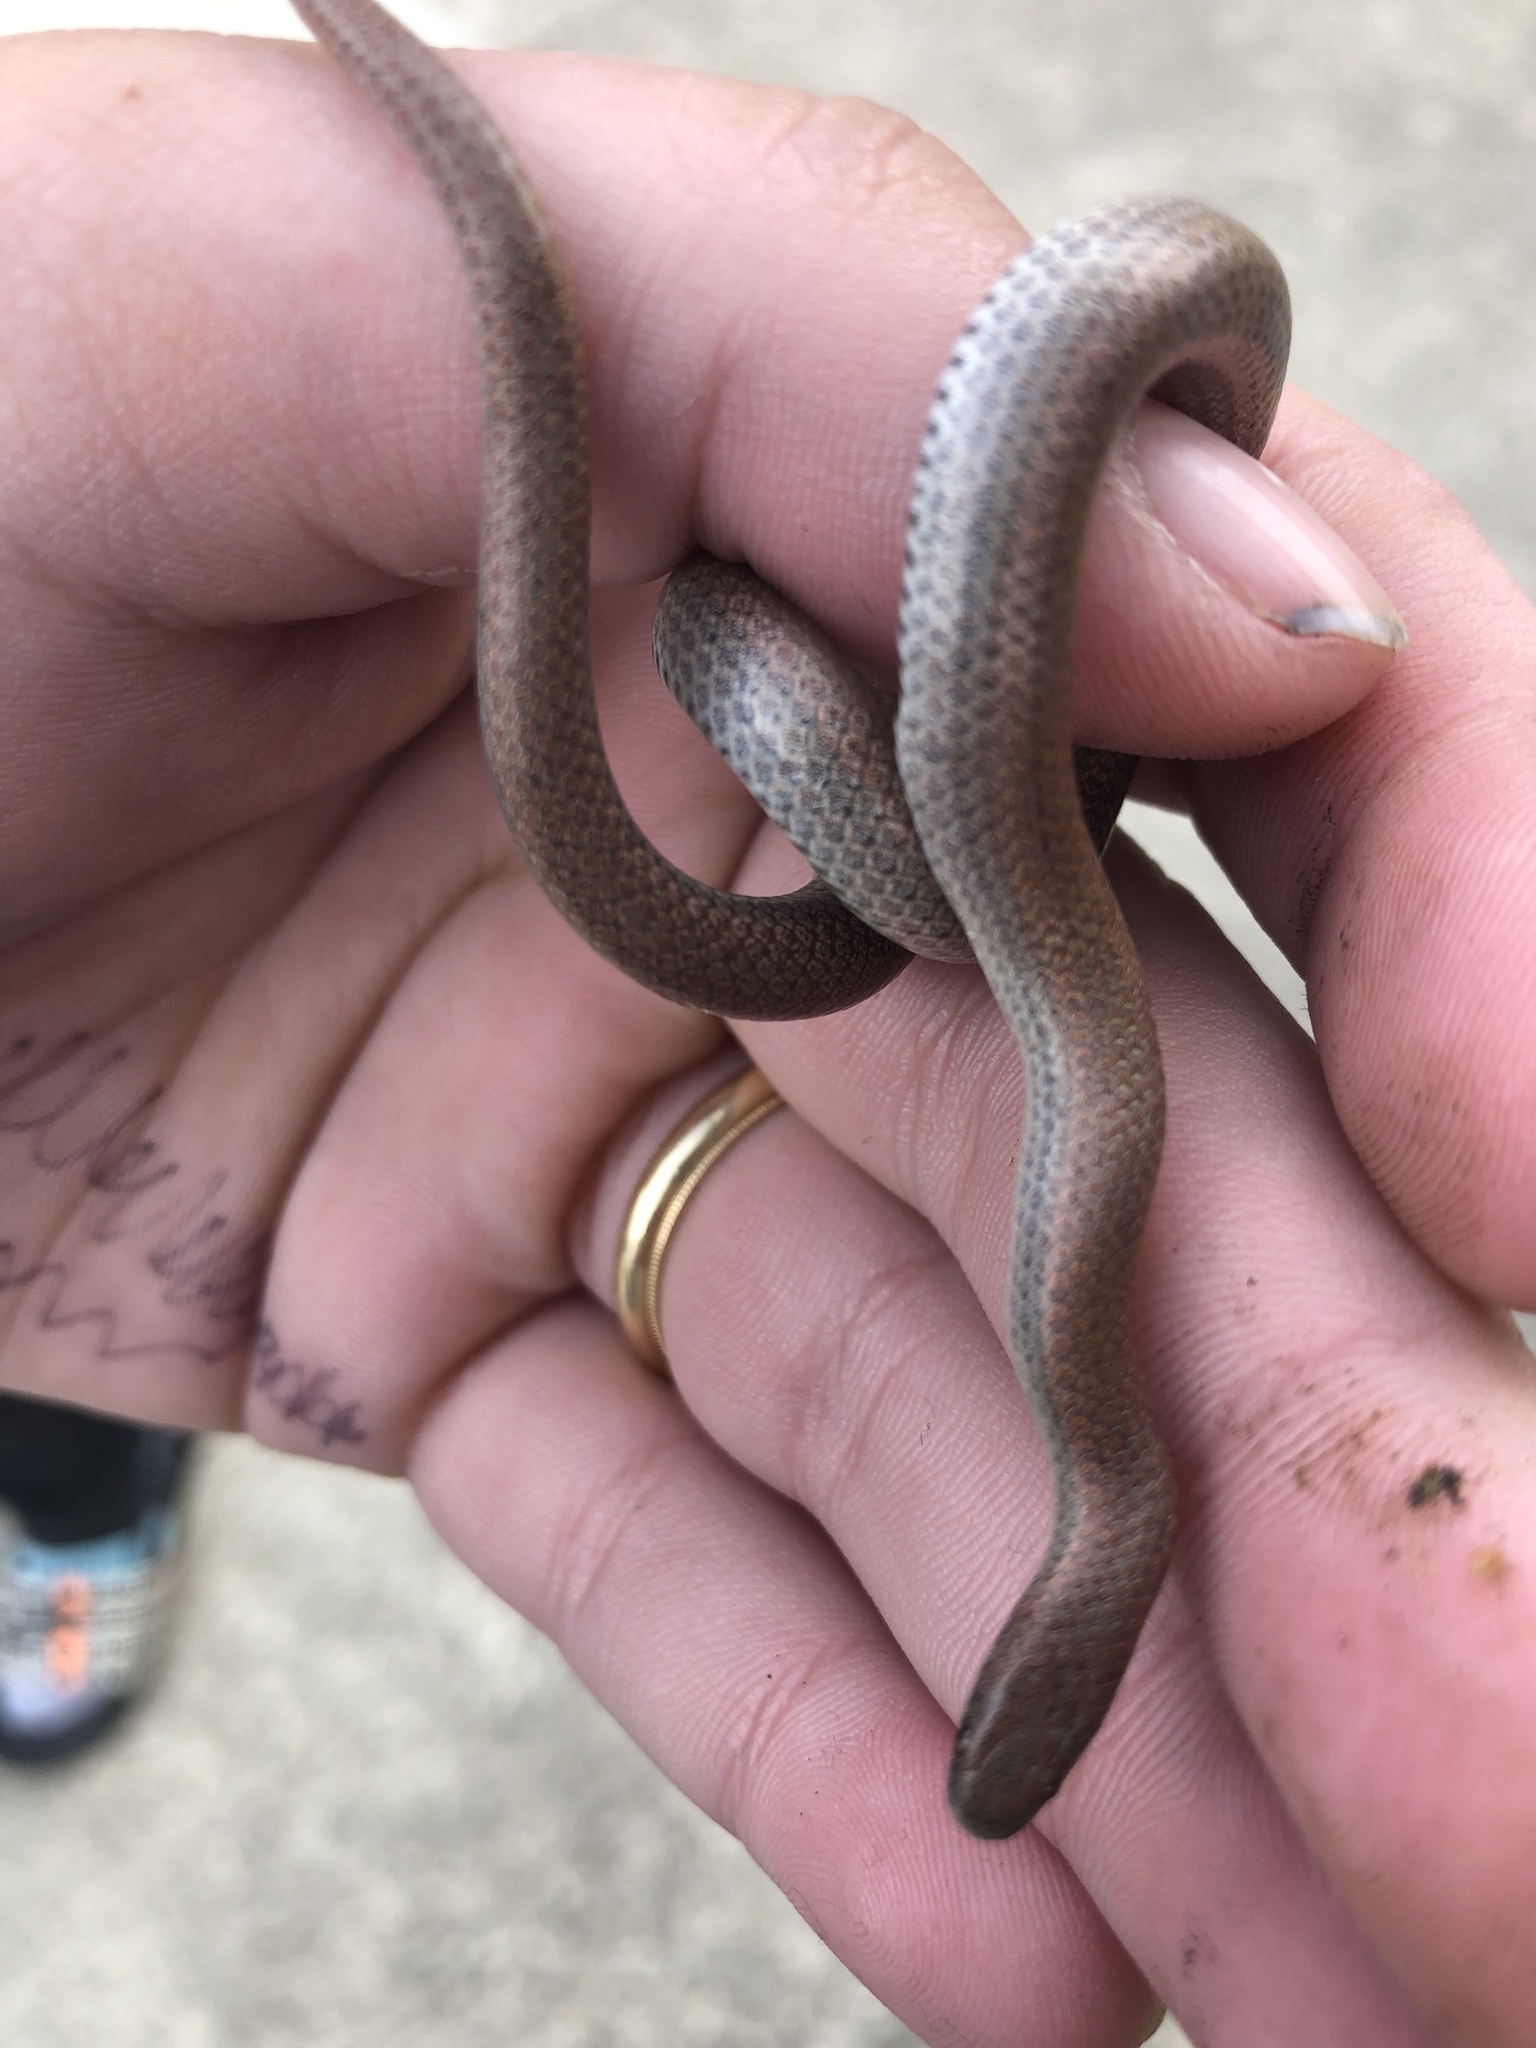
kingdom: Animalia
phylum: Chordata
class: Squamata
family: Colubridae
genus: Contia
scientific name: Contia tenuis
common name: Sharptail snake
